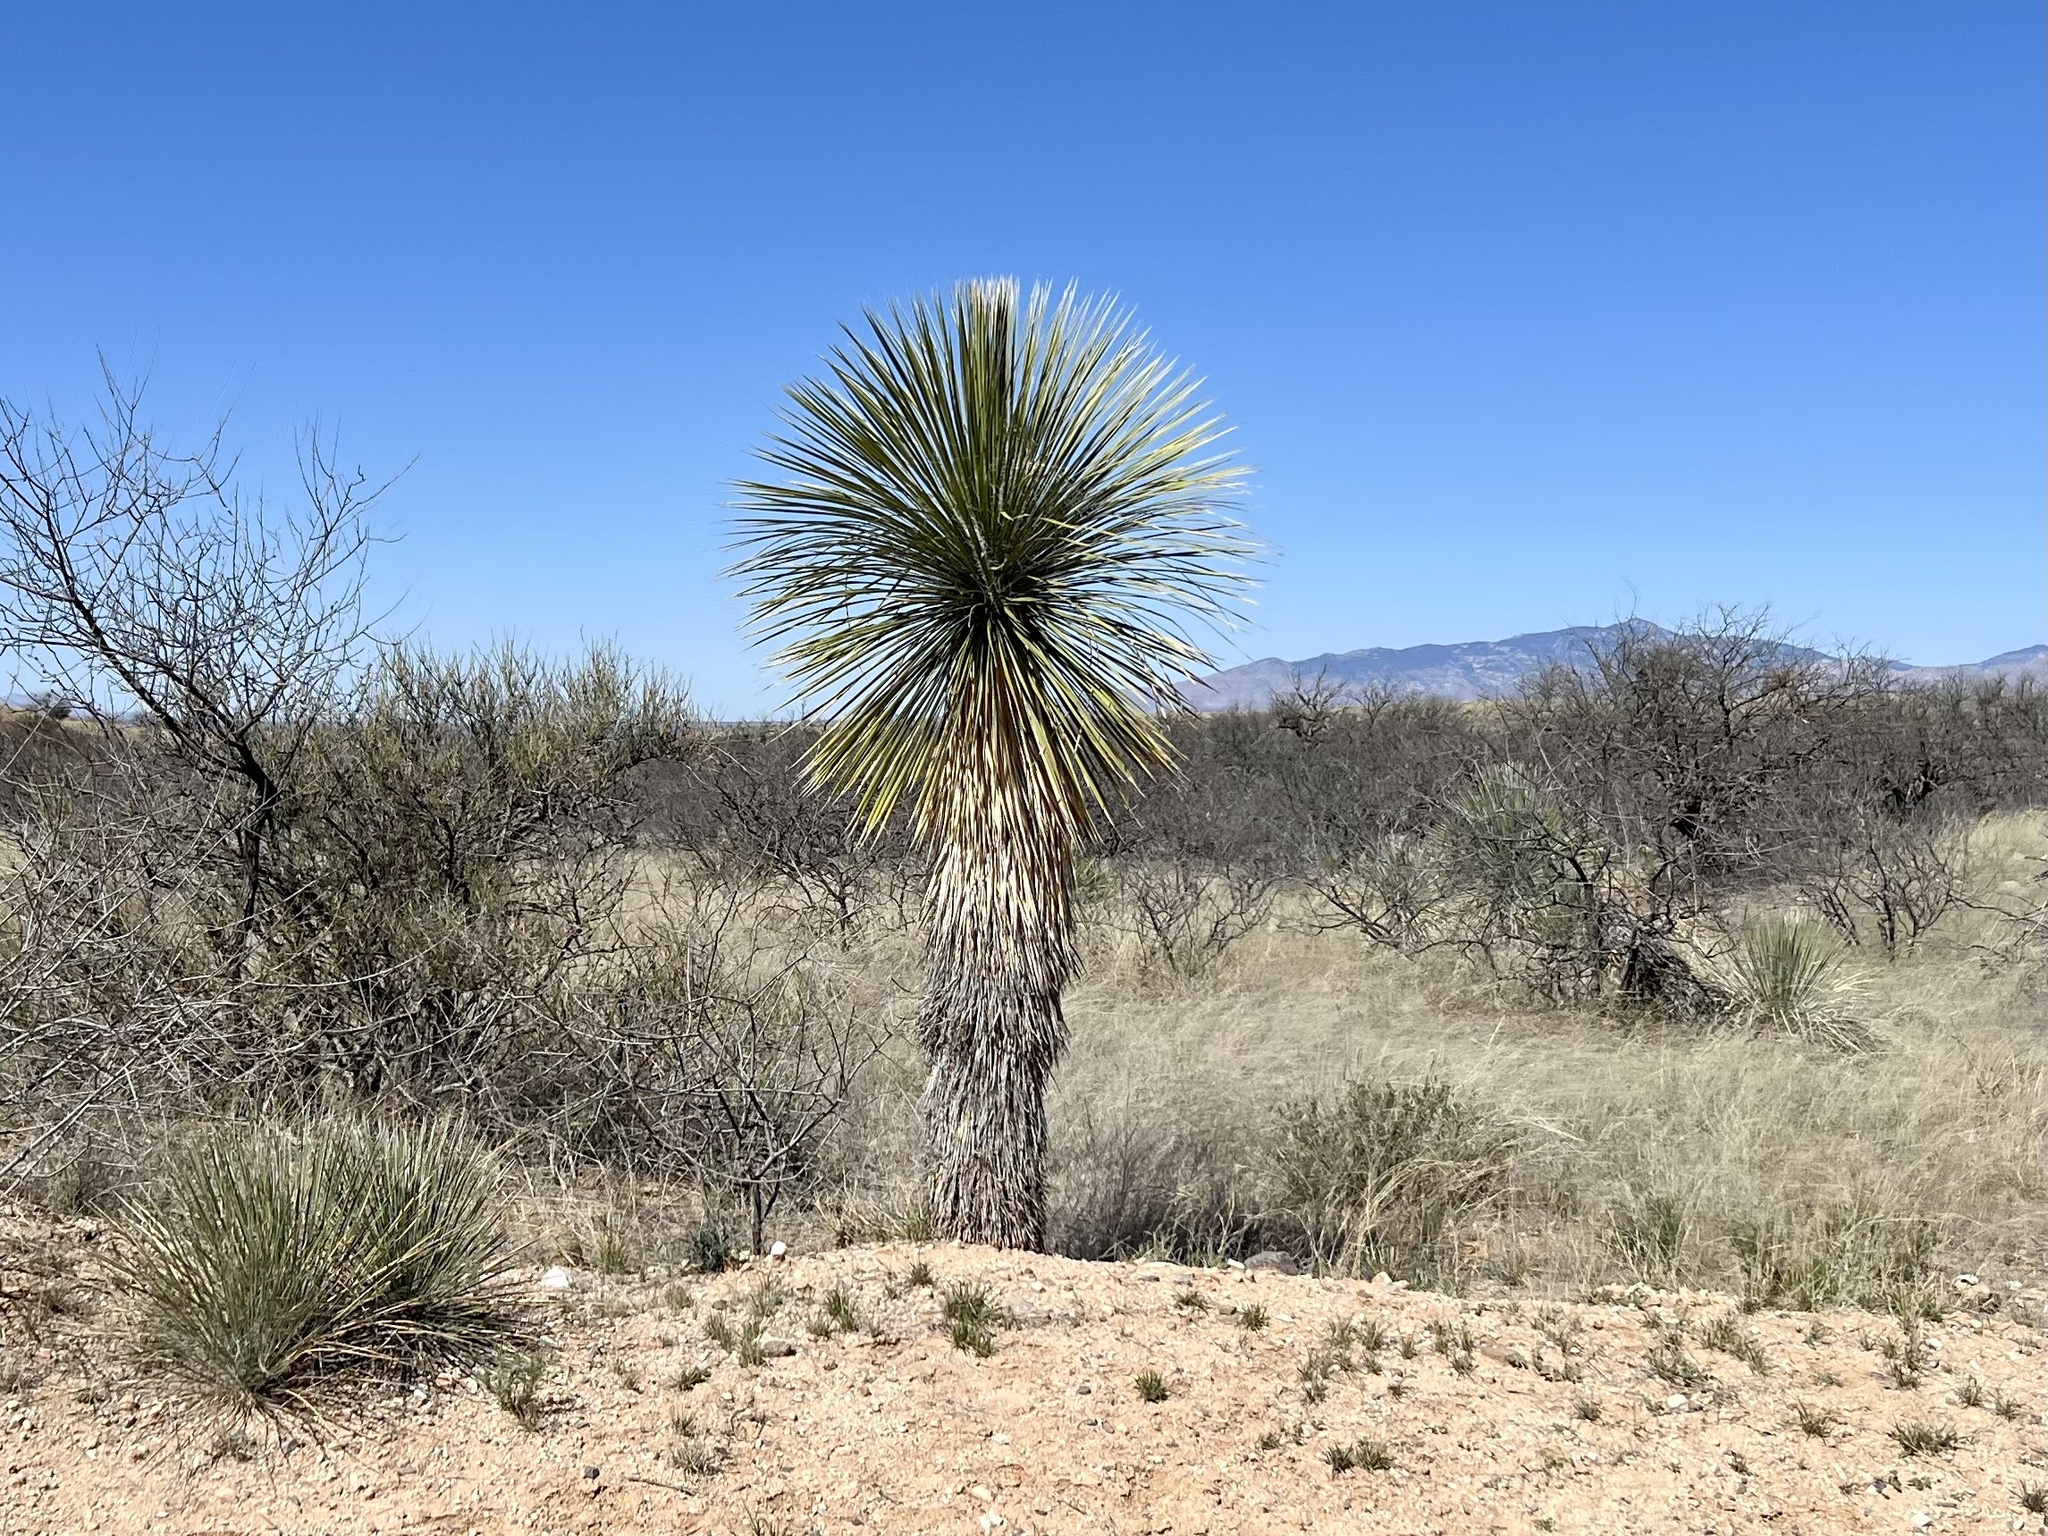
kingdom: Plantae
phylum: Tracheophyta
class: Liliopsida
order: Asparagales
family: Asparagaceae
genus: Yucca
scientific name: Yucca elata
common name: Palmella
